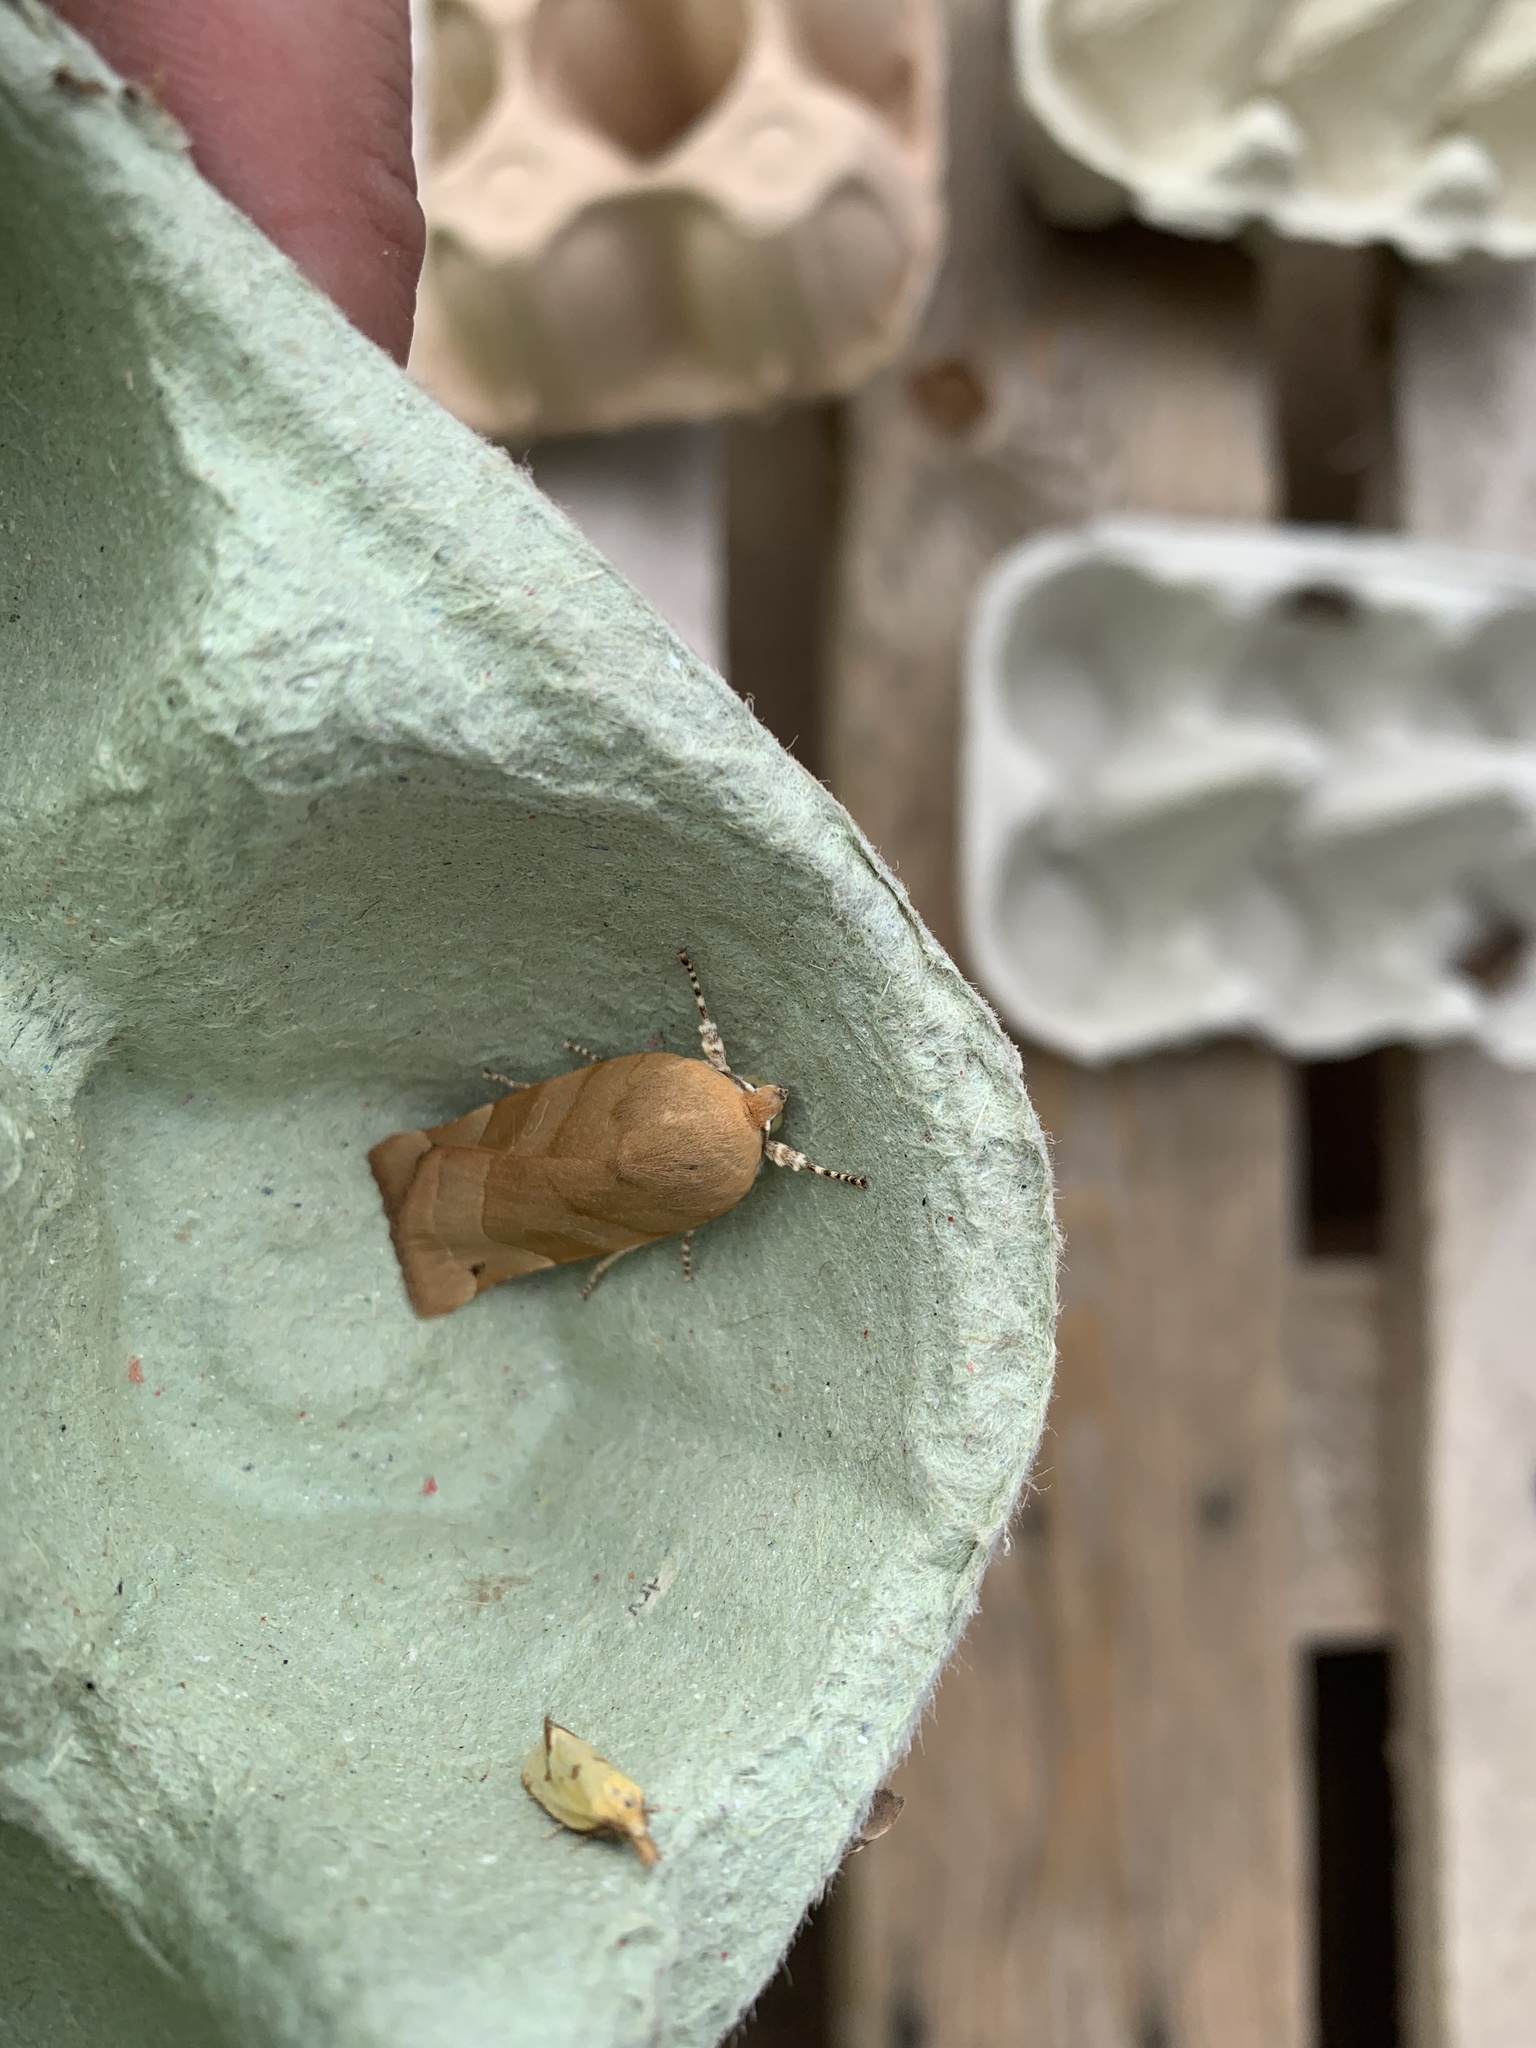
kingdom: Animalia
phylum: Arthropoda
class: Insecta
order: Lepidoptera
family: Noctuidae
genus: Noctua
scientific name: Noctua fimbriata
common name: Broad-bordered yellow underwing
